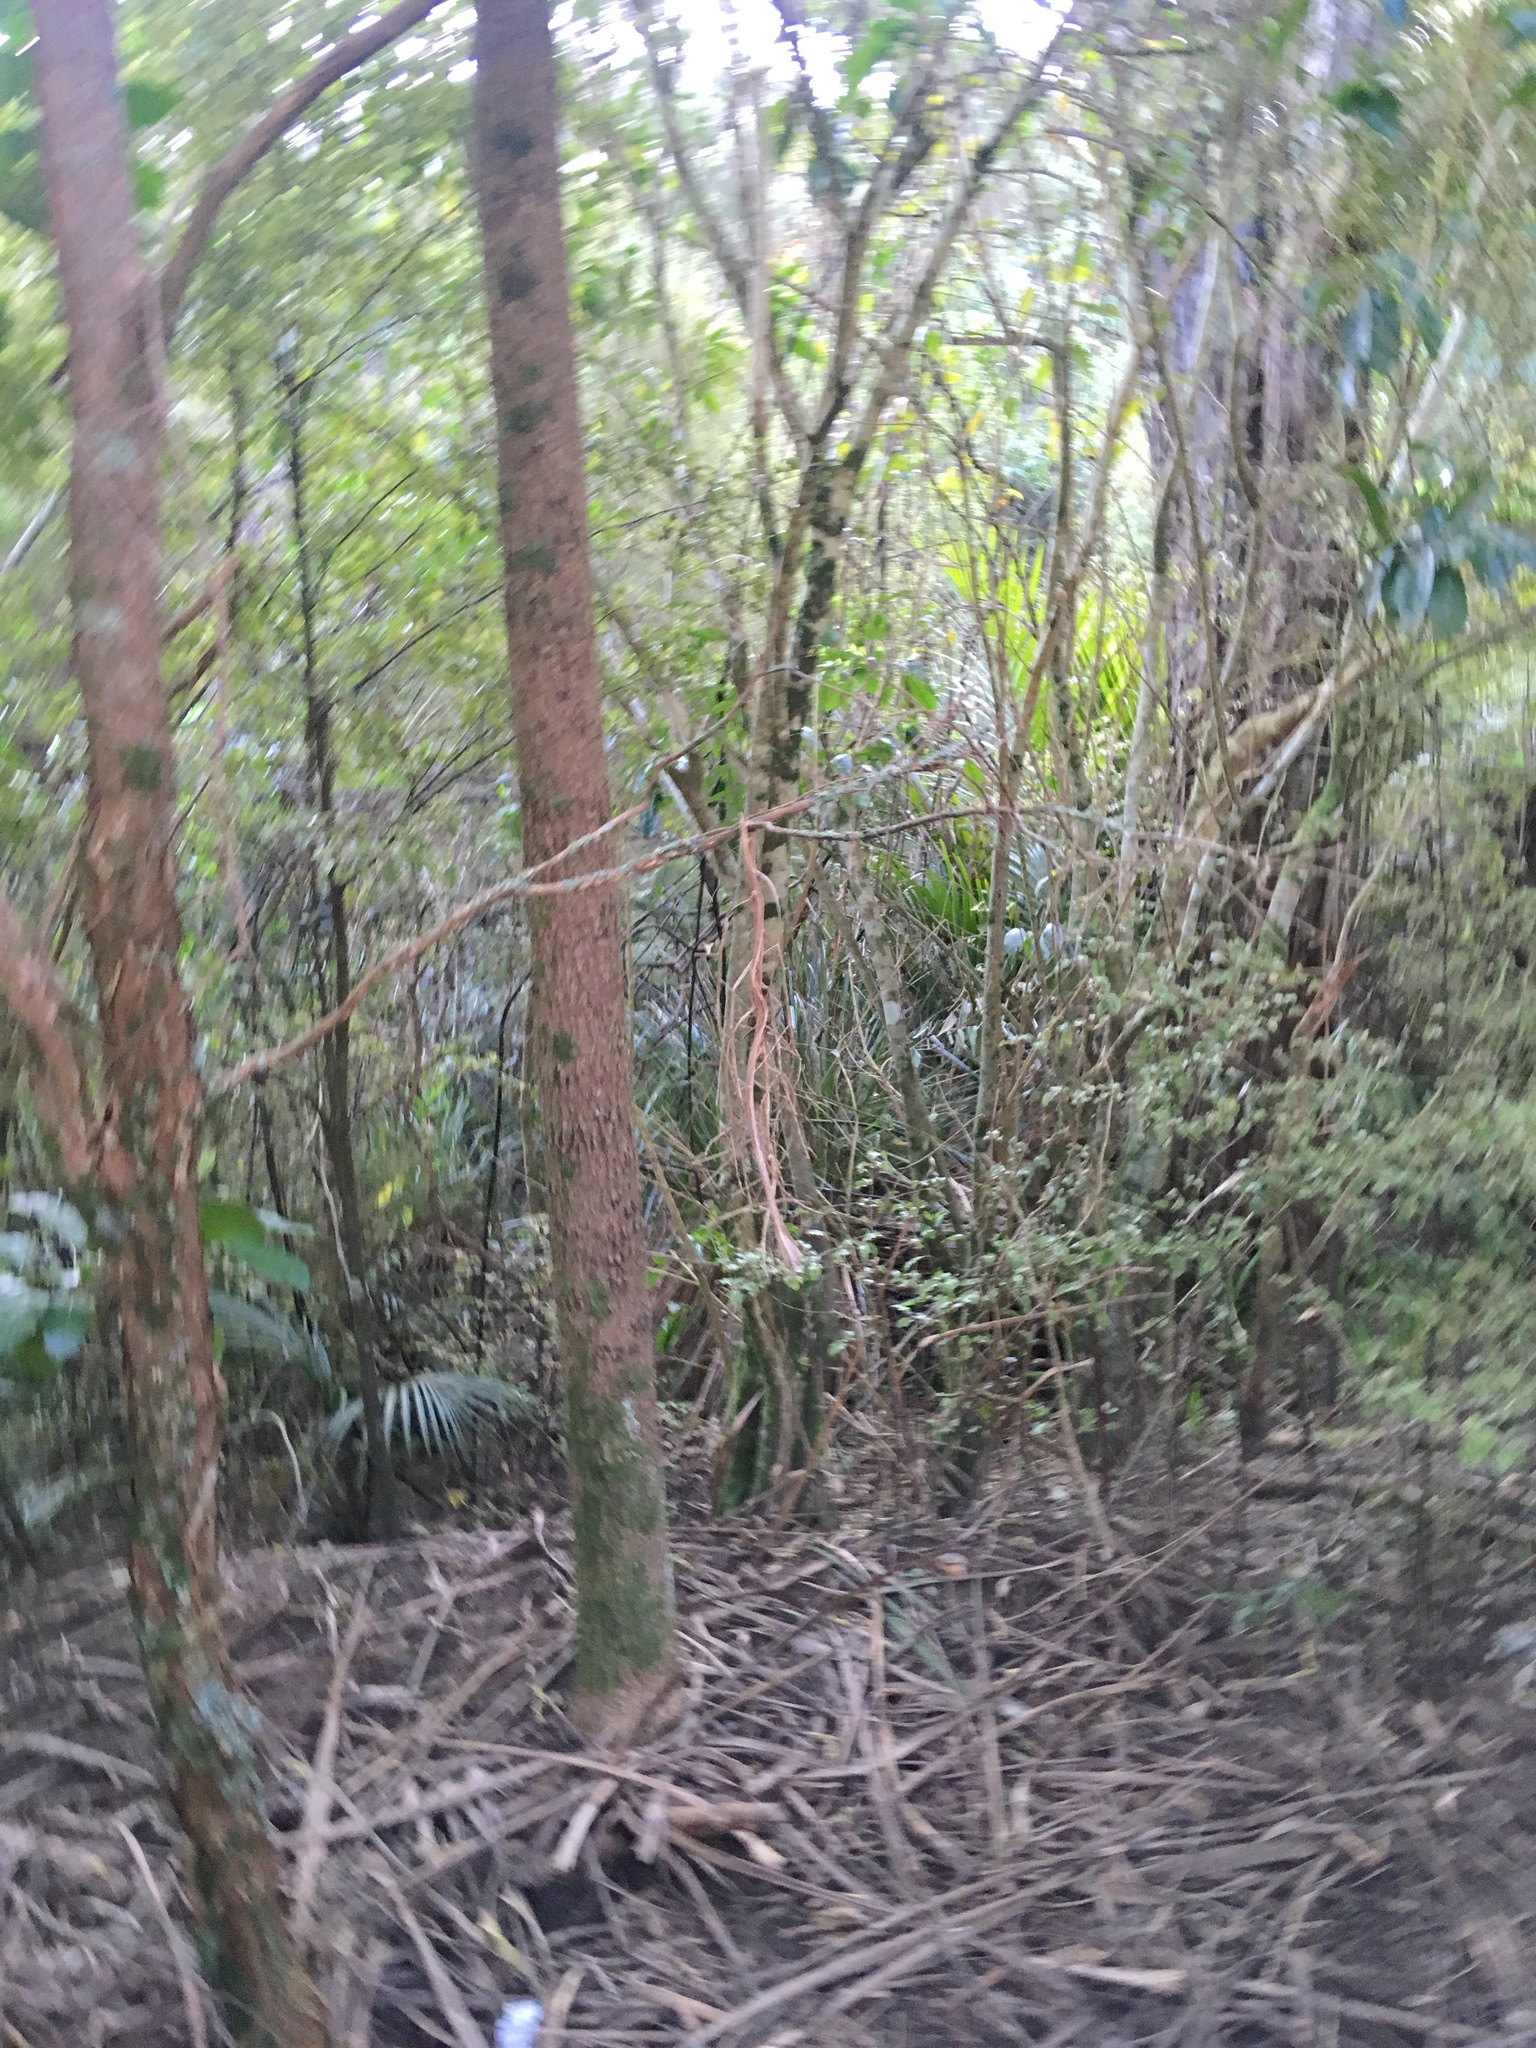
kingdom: Plantae
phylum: Tracheophyta
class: Liliopsida
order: Arecales
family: Arecaceae
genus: Rhopalostylis
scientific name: Rhopalostylis sapida
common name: Feather-duster palm
